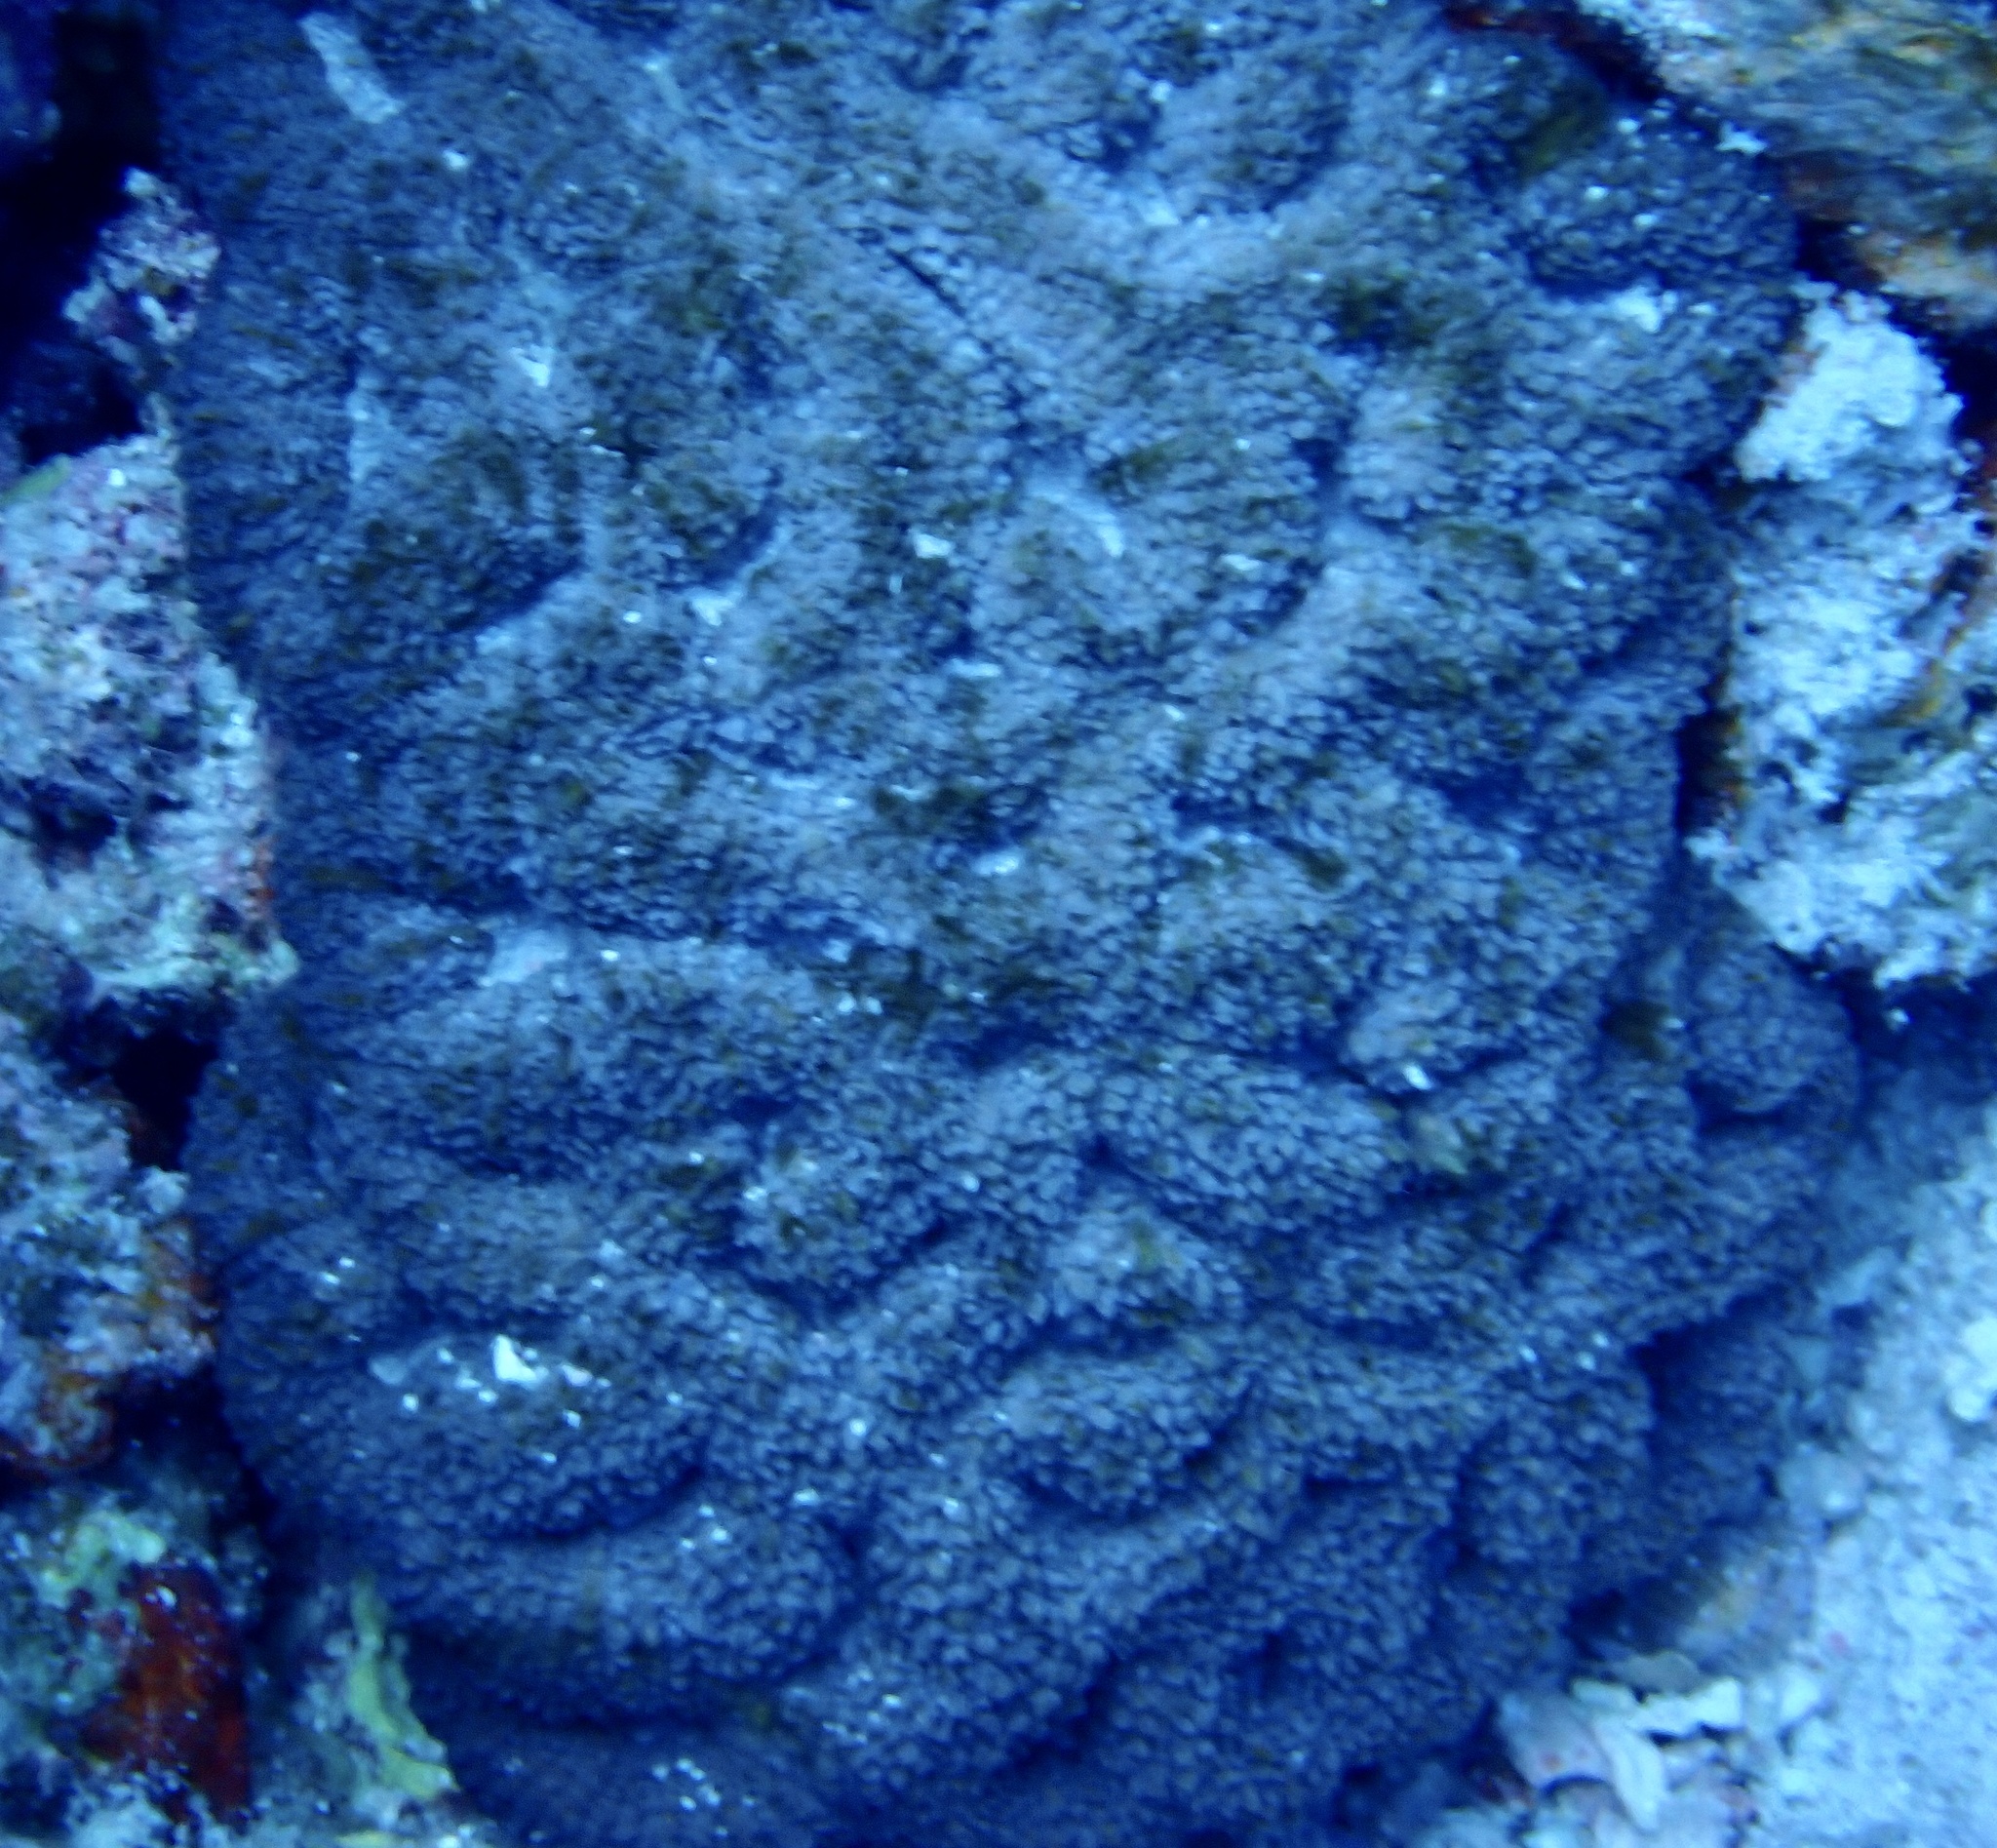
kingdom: Animalia
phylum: Cnidaria
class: Anthozoa
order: Scleractinia
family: Lobophylliidae
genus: Lobophyllia
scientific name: Lobophyllia erythraea
